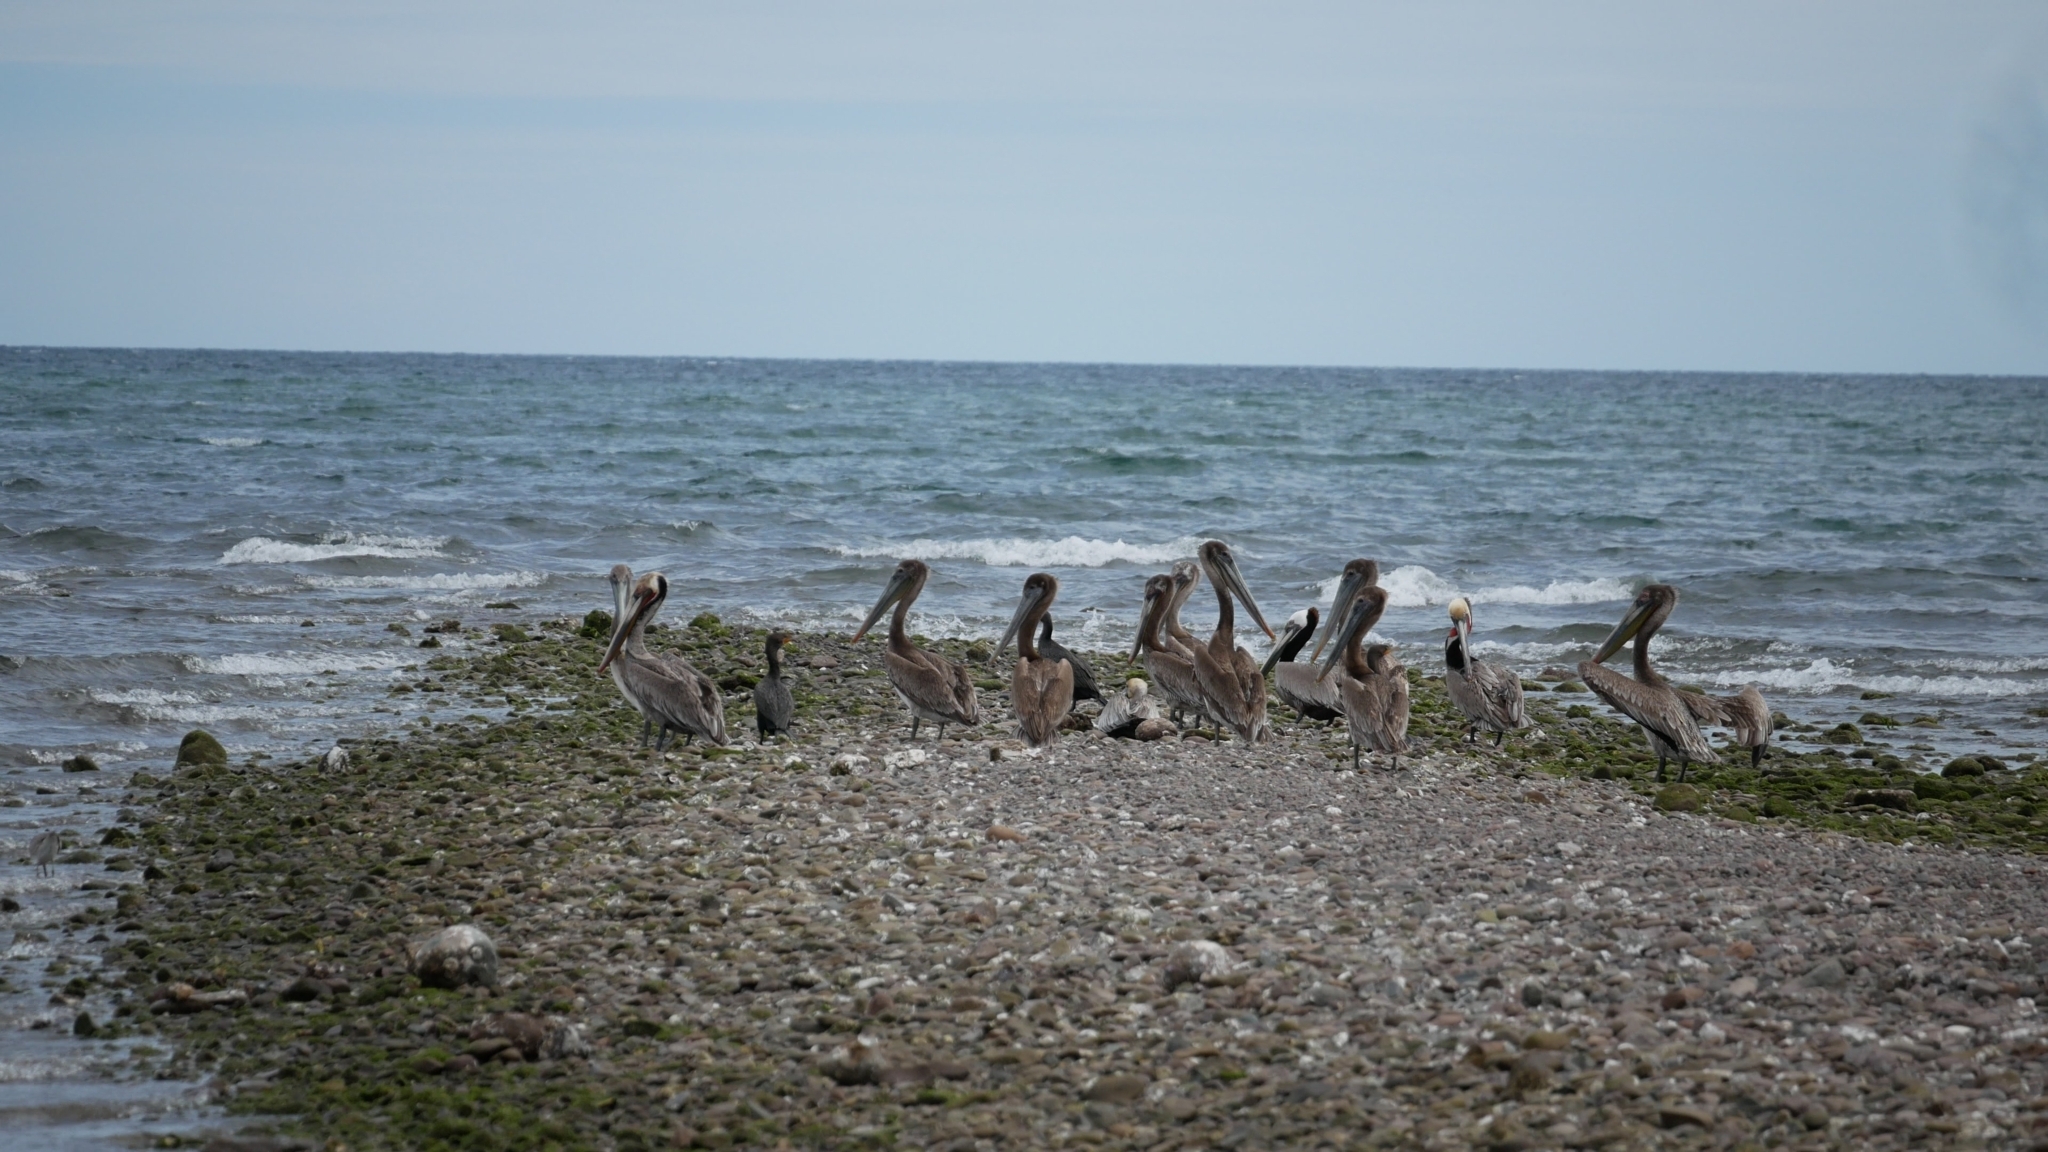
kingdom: Animalia
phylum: Chordata
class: Aves
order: Pelecaniformes
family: Pelecanidae
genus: Pelecanus
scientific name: Pelecanus occidentalis
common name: Brown pelican
